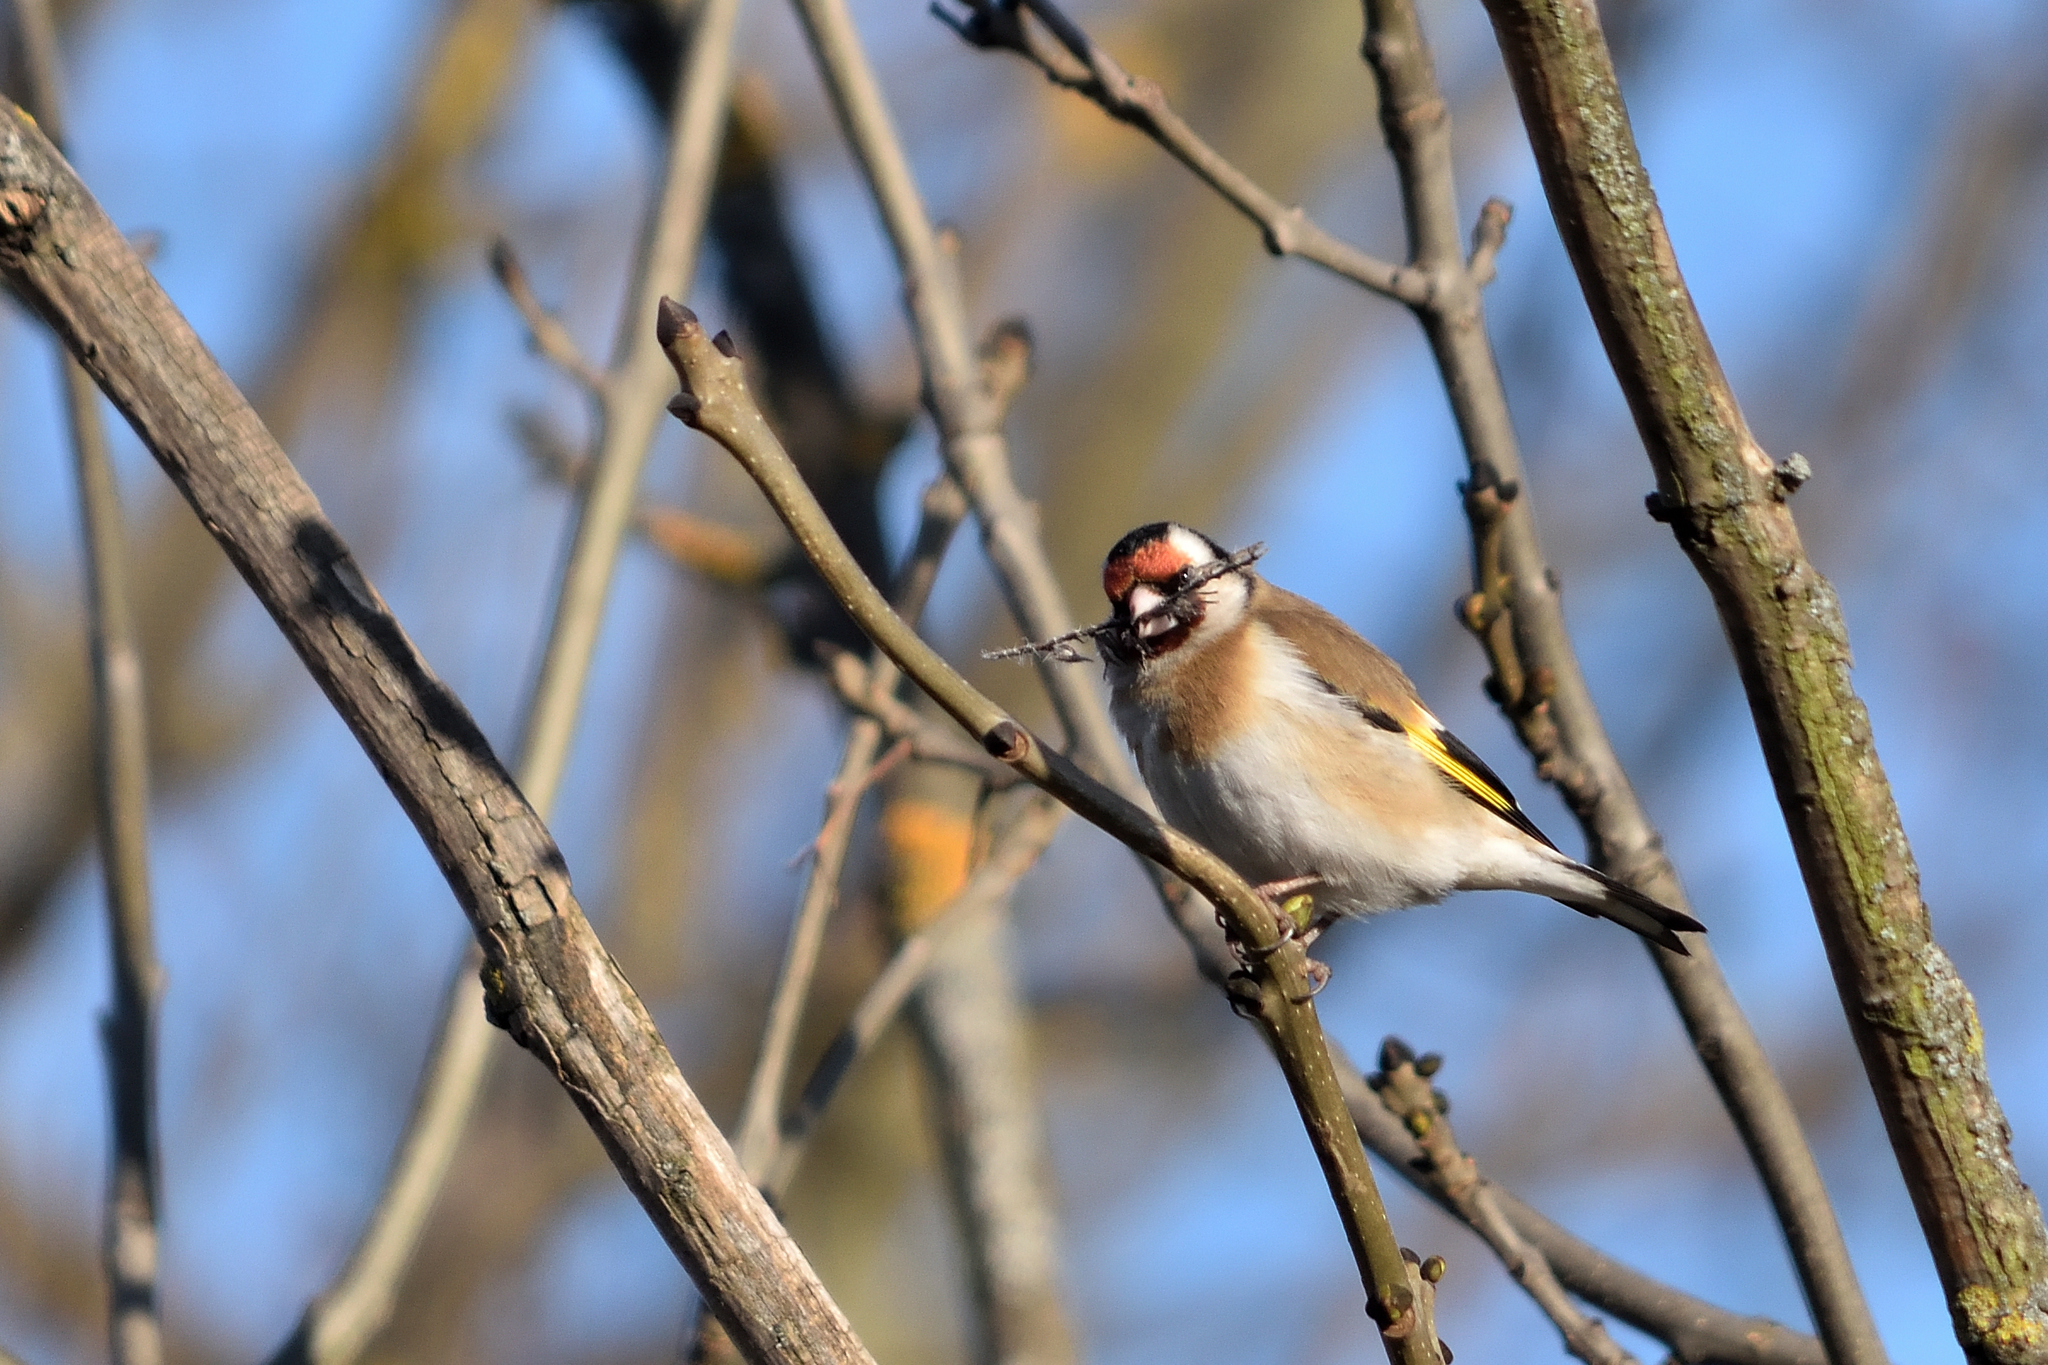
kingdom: Animalia
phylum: Chordata
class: Aves
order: Passeriformes
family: Fringillidae
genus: Carduelis
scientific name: Carduelis carduelis
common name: European goldfinch
